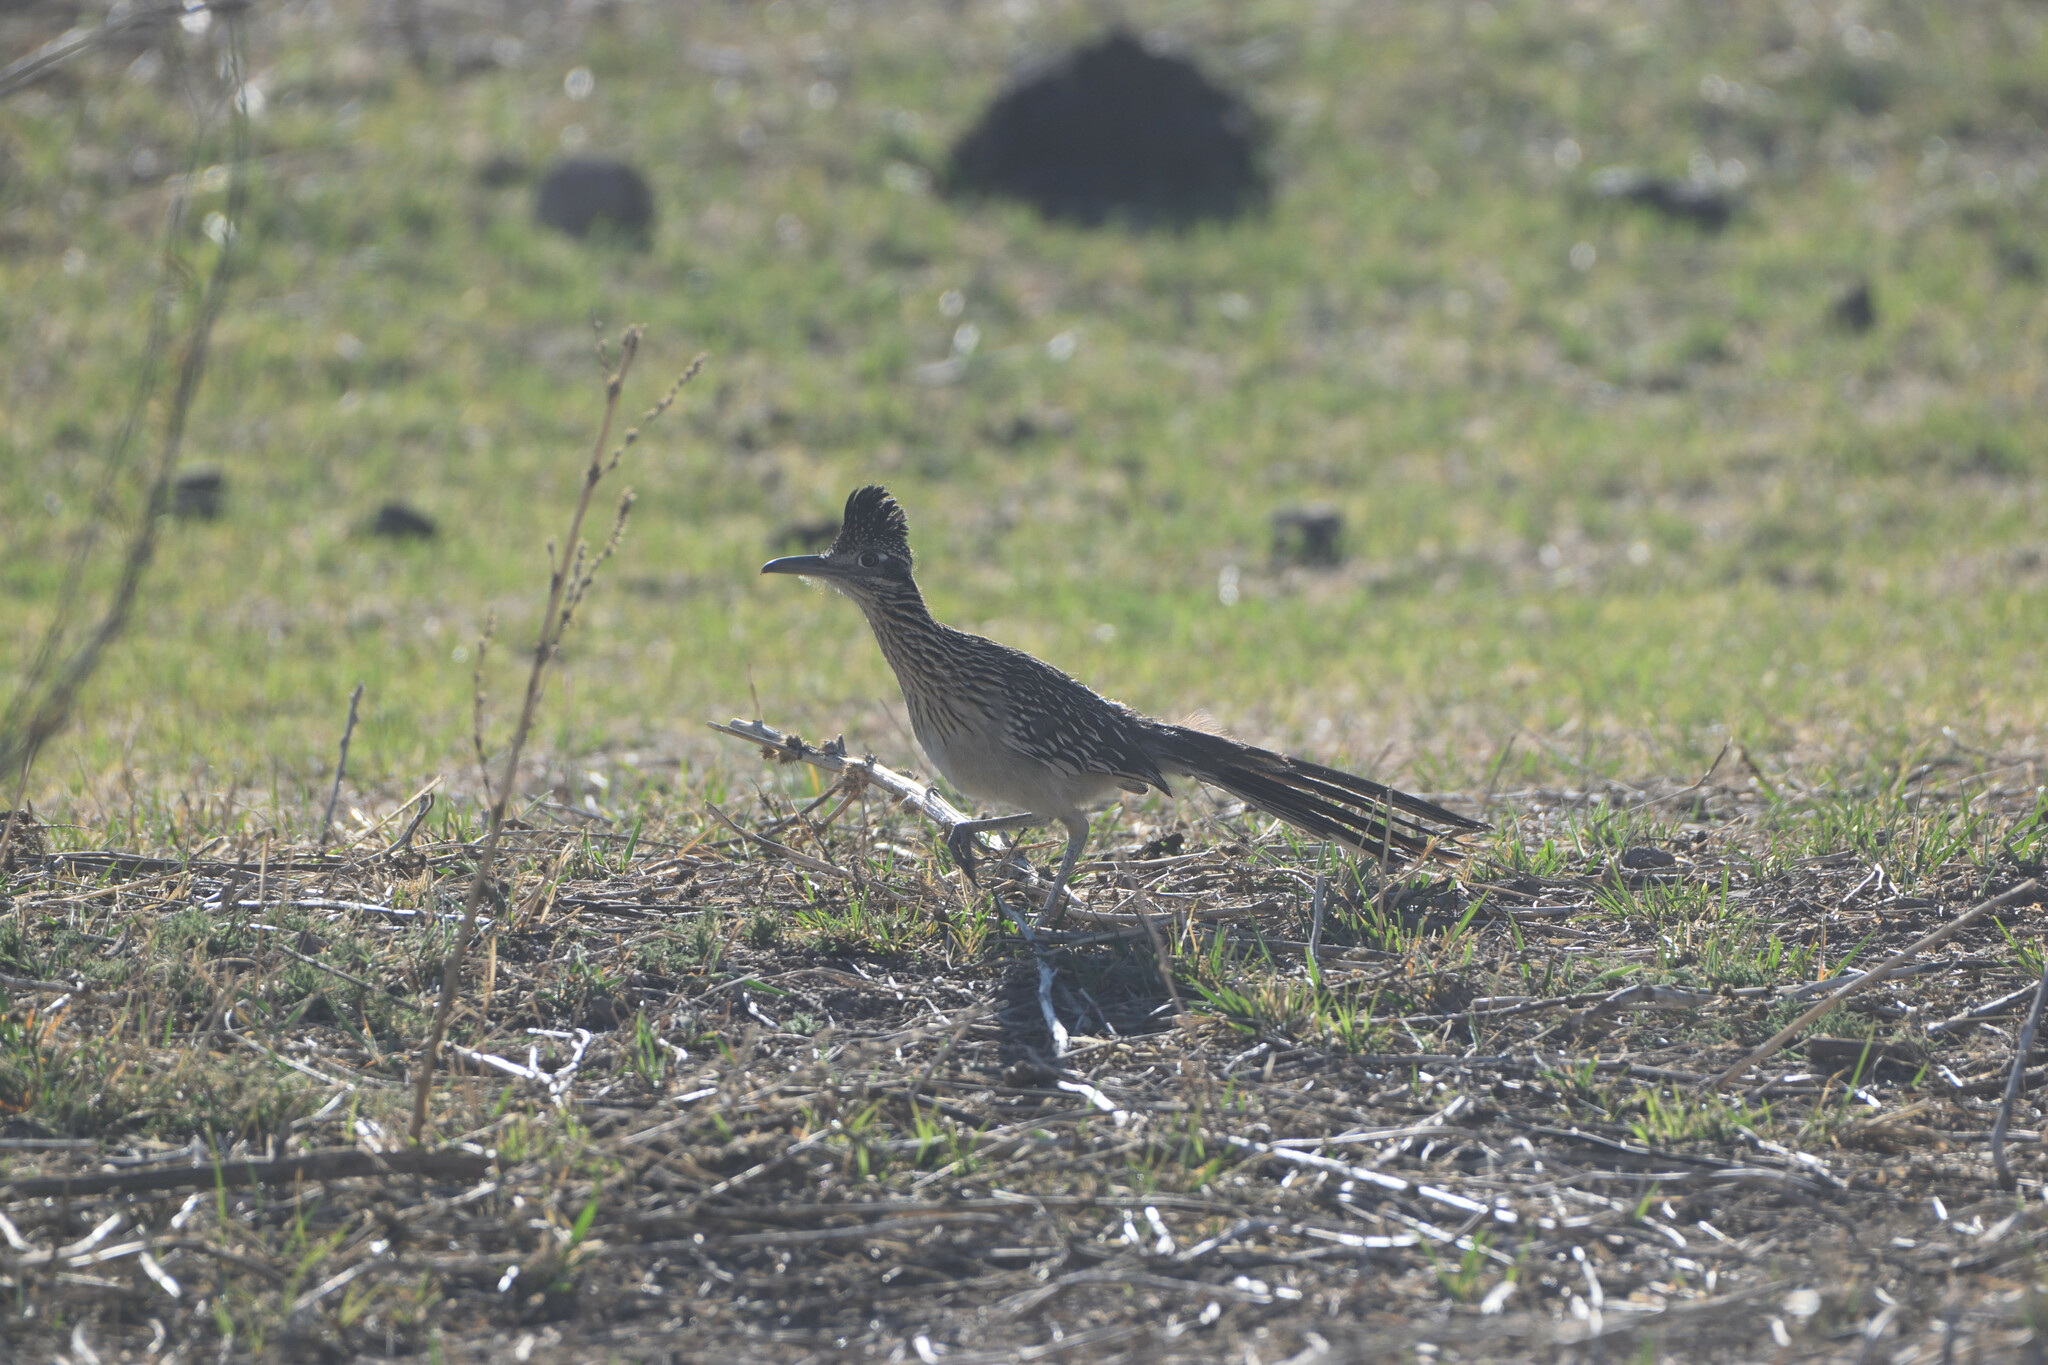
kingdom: Animalia
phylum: Chordata
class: Aves
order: Cuculiformes
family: Cuculidae
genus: Geococcyx
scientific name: Geococcyx californianus
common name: Greater roadrunner
